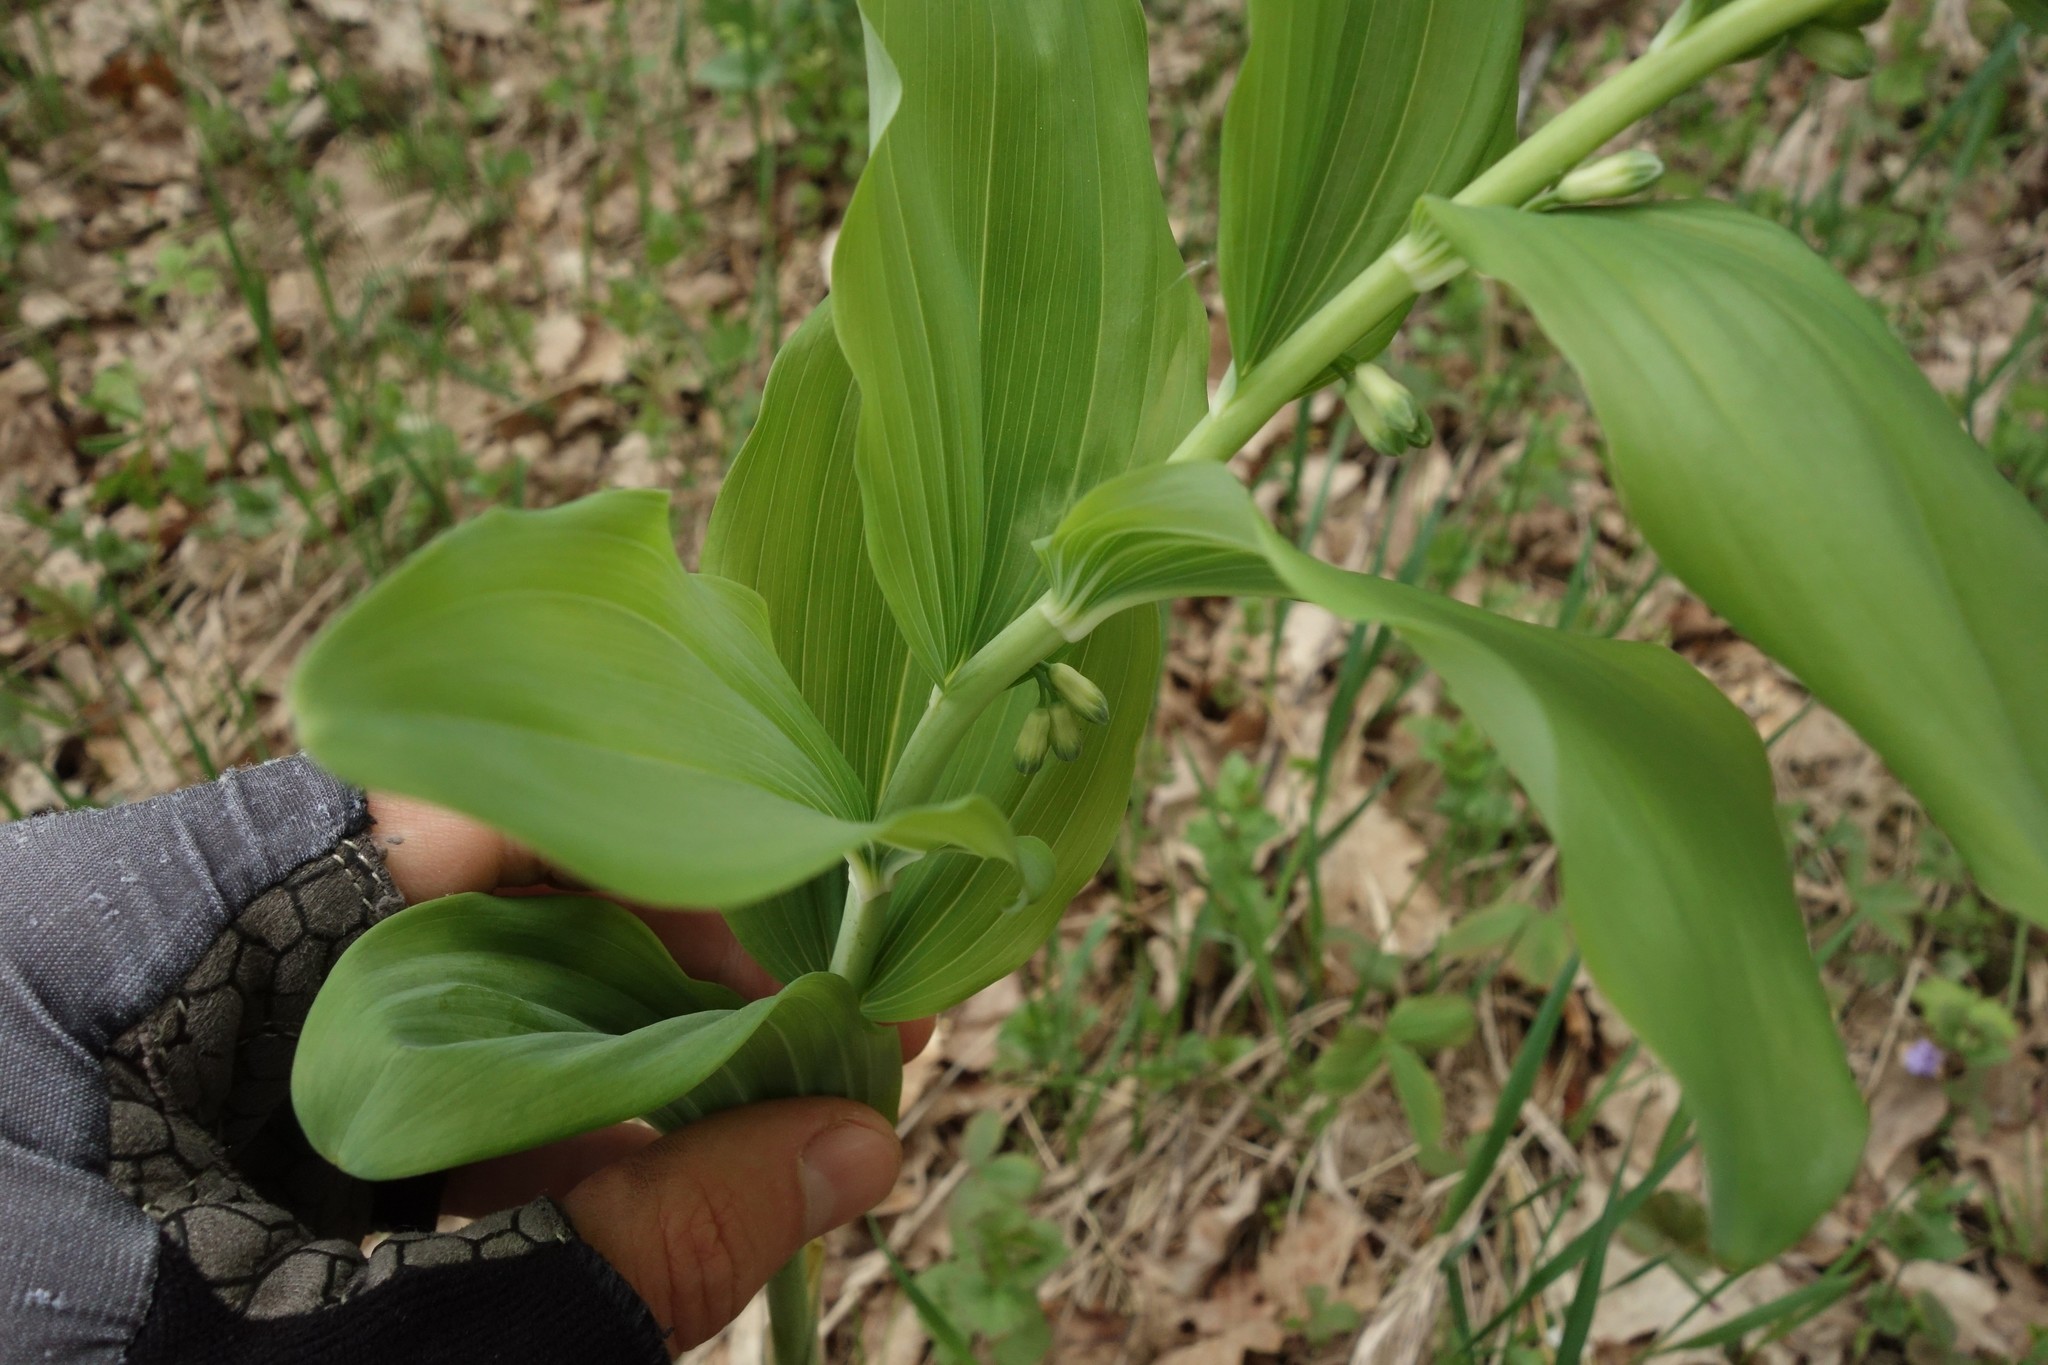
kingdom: Plantae
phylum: Tracheophyta
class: Liliopsida
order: Asparagales
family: Asparagaceae
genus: Polygonatum
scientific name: Polygonatum multiflorum
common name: Solomon's-seal
